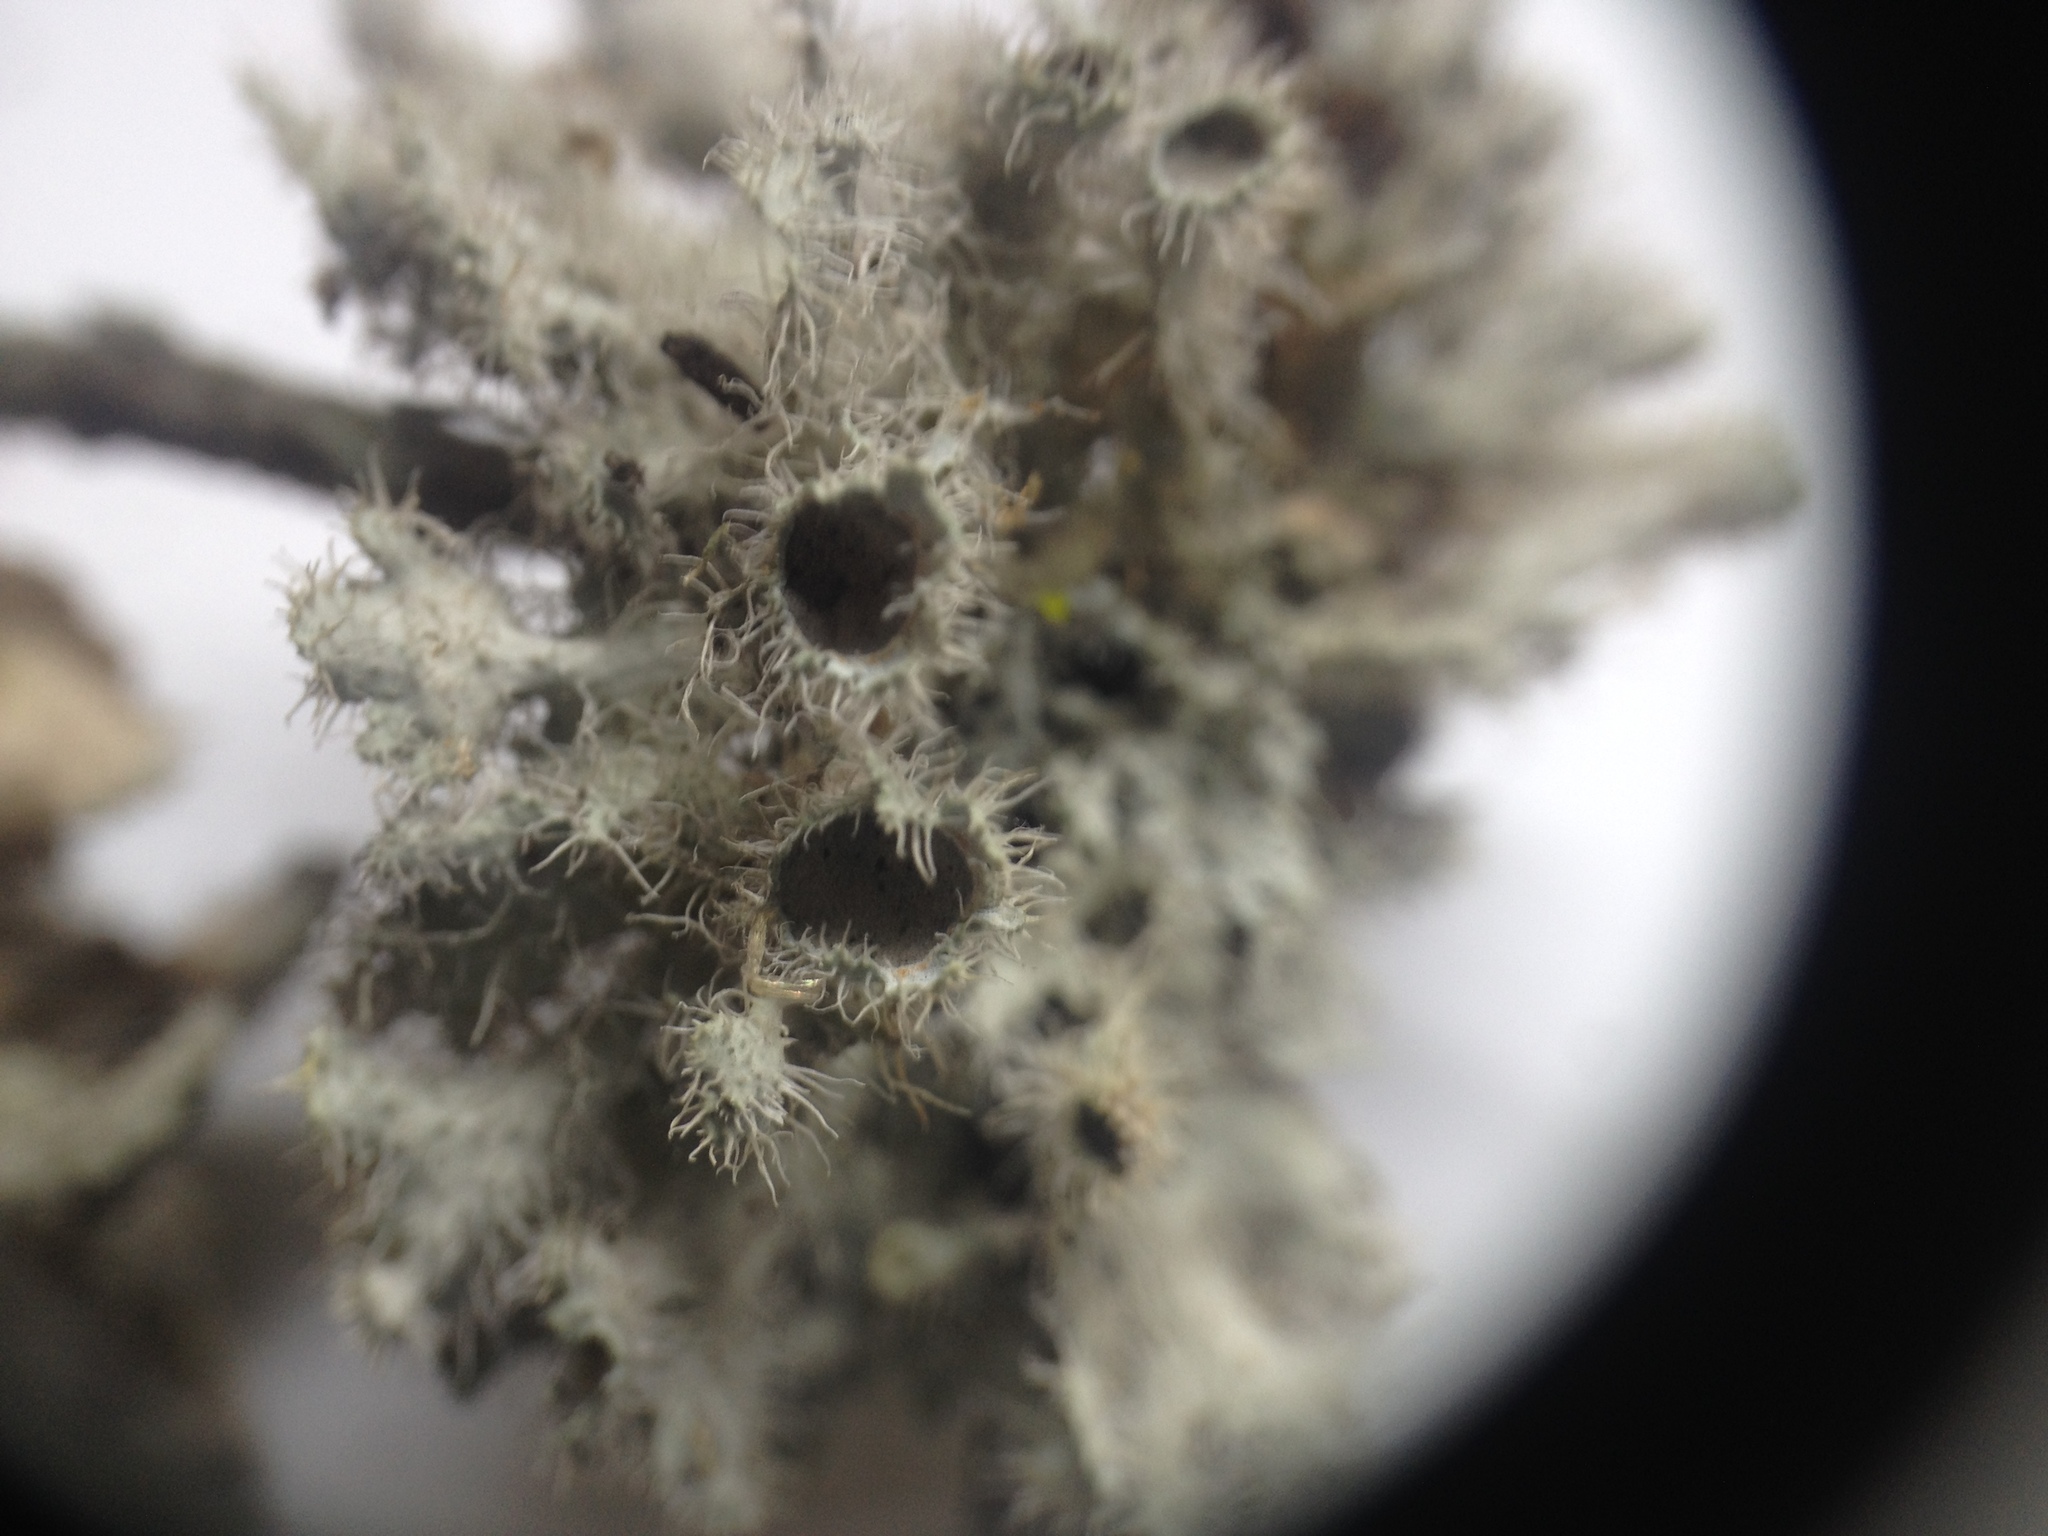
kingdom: Fungi
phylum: Ascomycota
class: Lecanoromycetes
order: Caliciales
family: Physciaceae
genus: Heterodermia
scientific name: Heterodermia neocomosa
